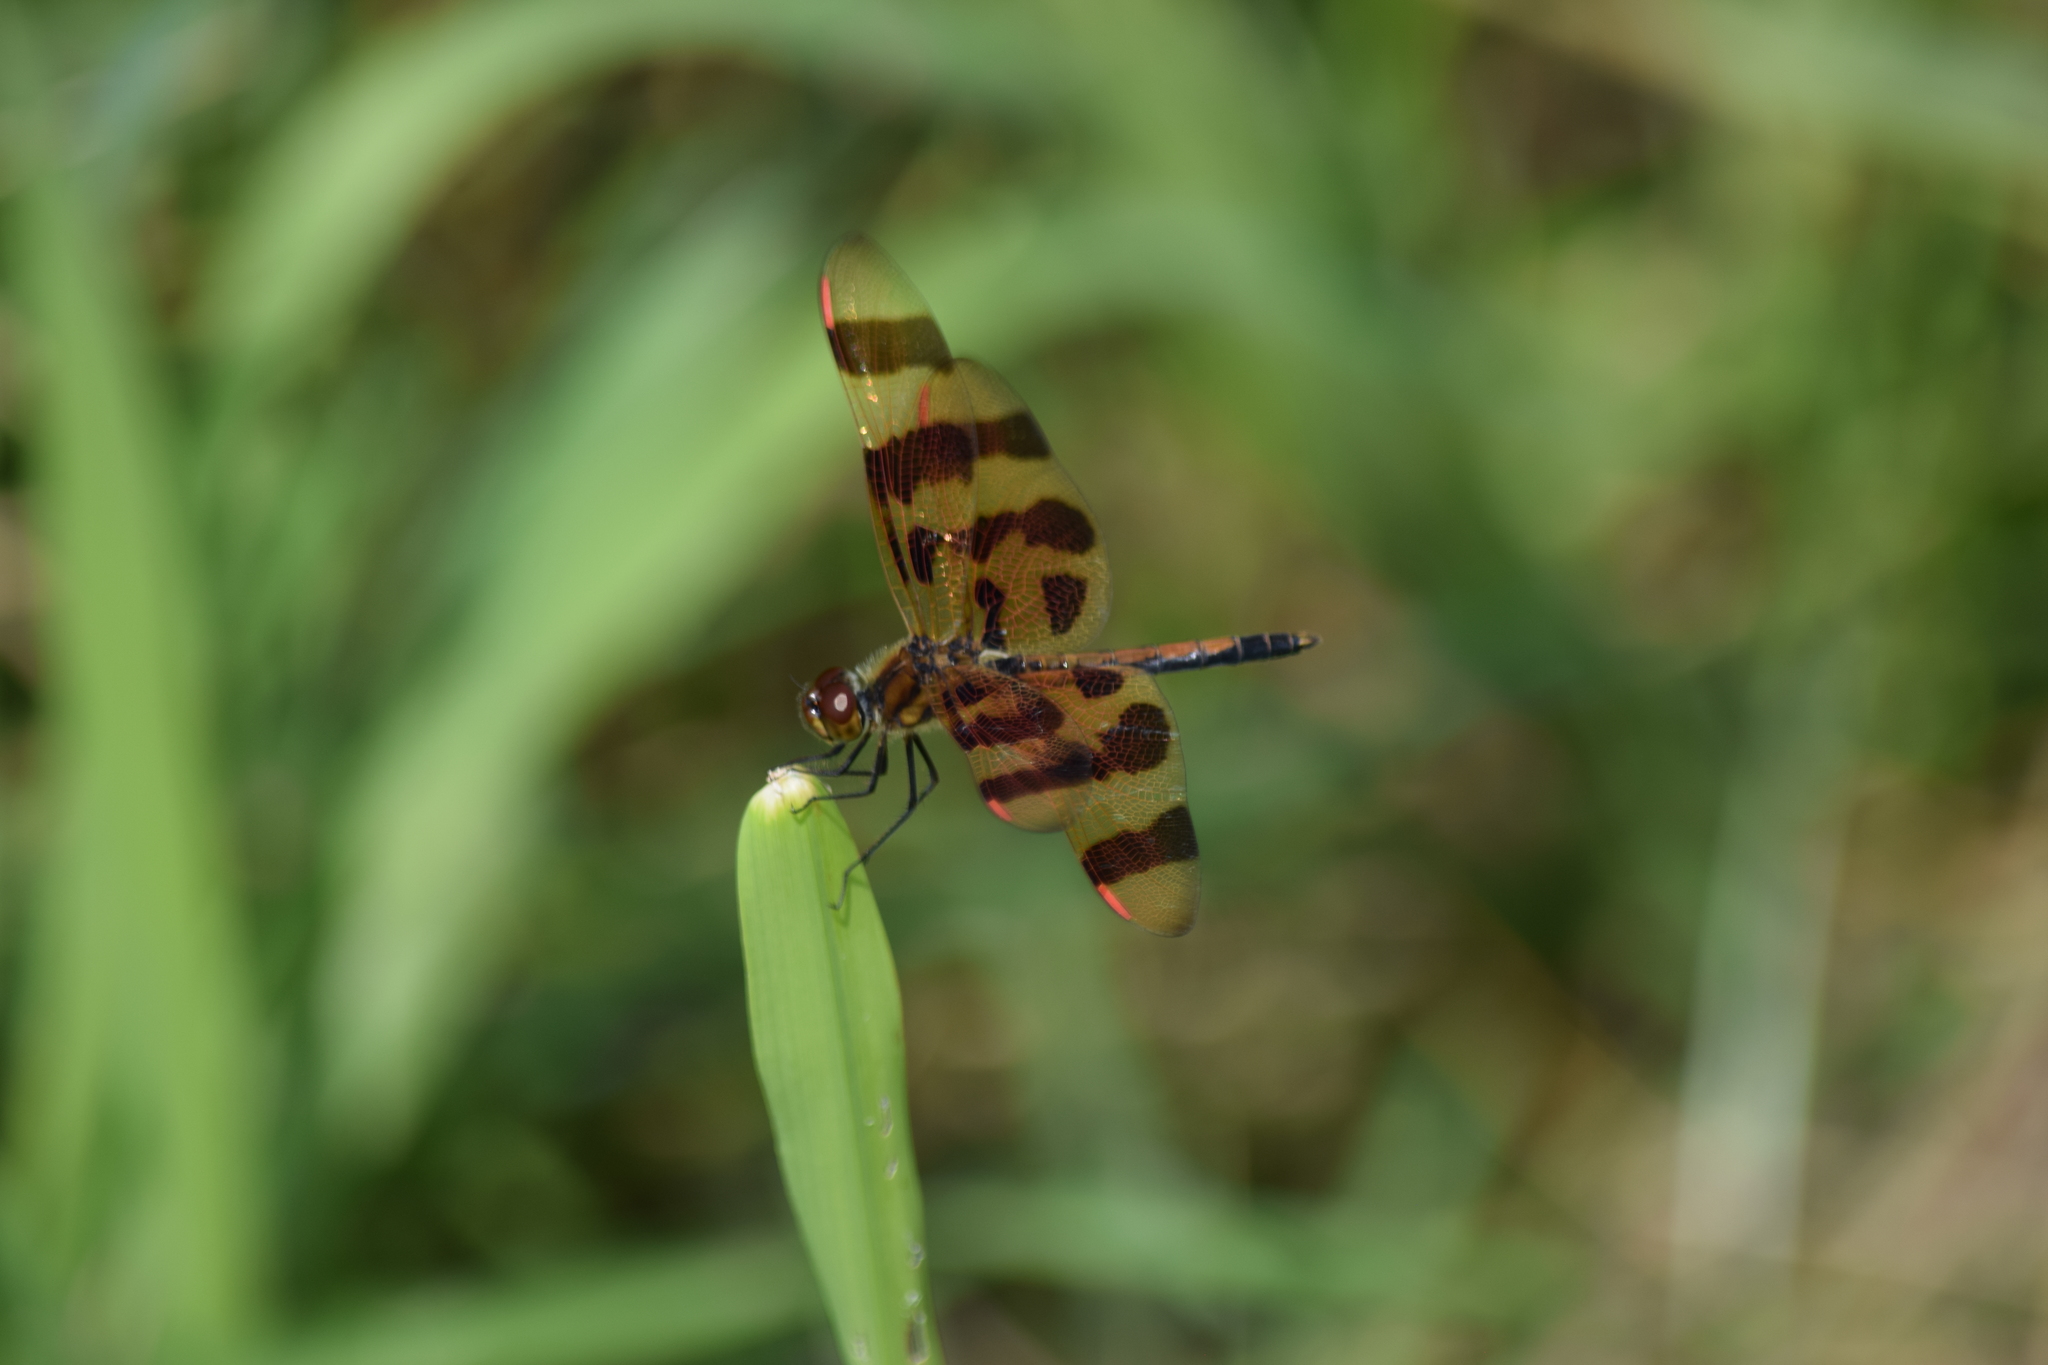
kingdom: Animalia
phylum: Arthropoda
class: Insecta
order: Odonata
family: Libellulidae
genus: Celithemis
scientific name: Celithemis eponina
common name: Halloween pennant
